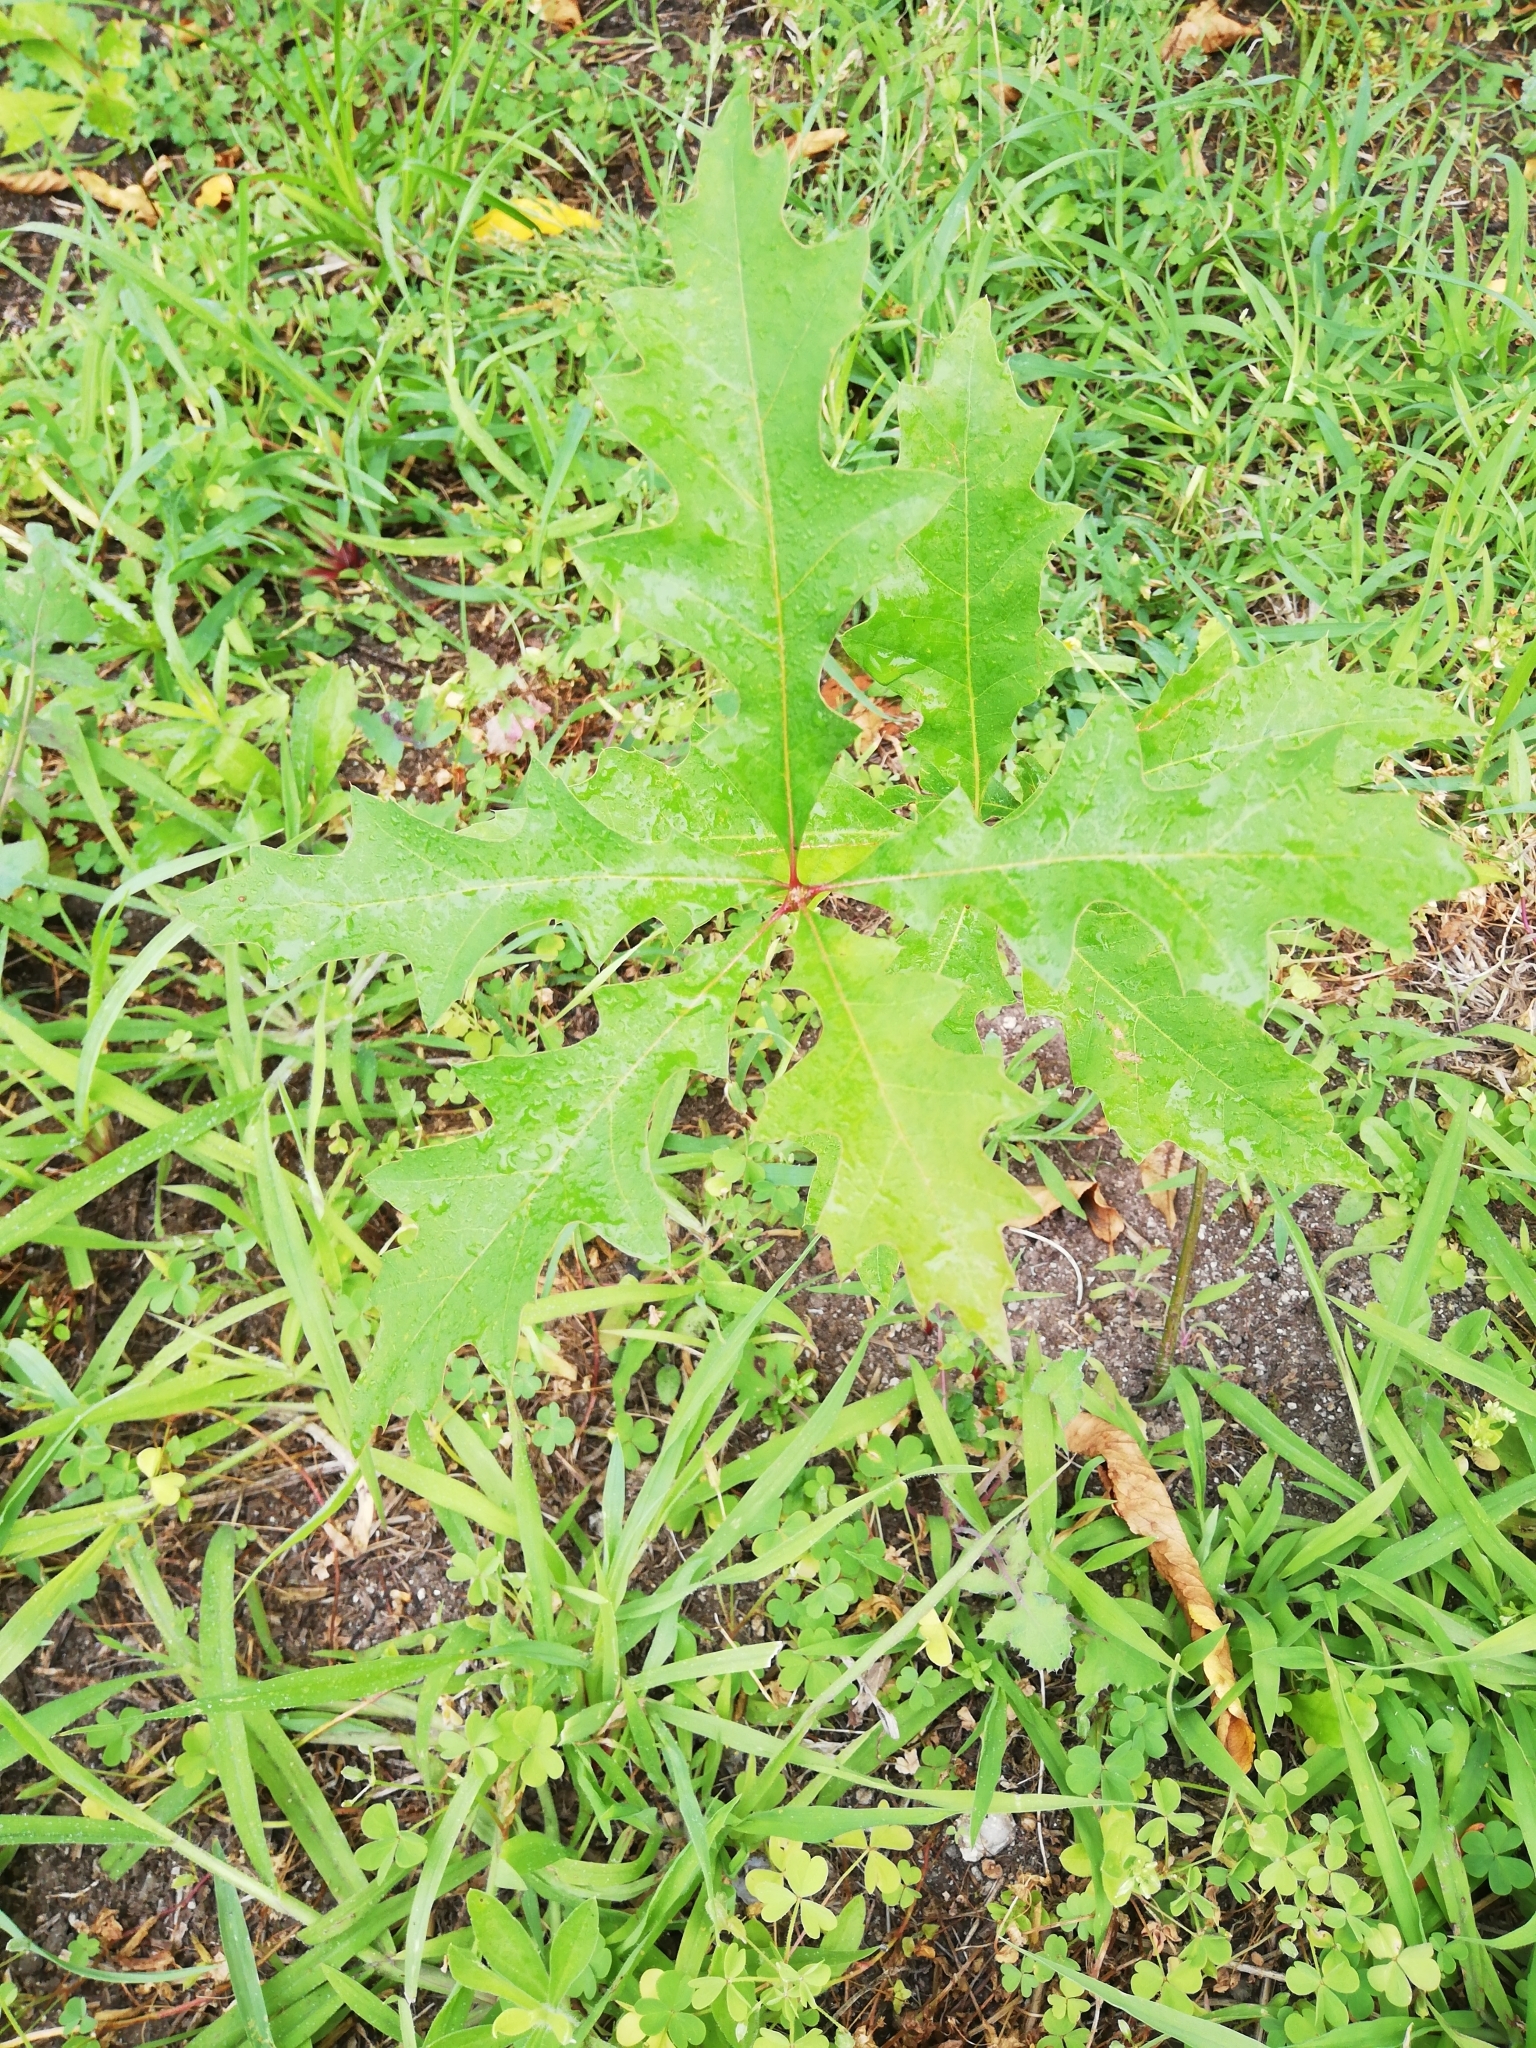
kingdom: Plantae
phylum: Tracheophyta
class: Magnoliopsida
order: Fagales
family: Fagaceae
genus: Quercus
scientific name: Quercus rubra
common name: Red oak
